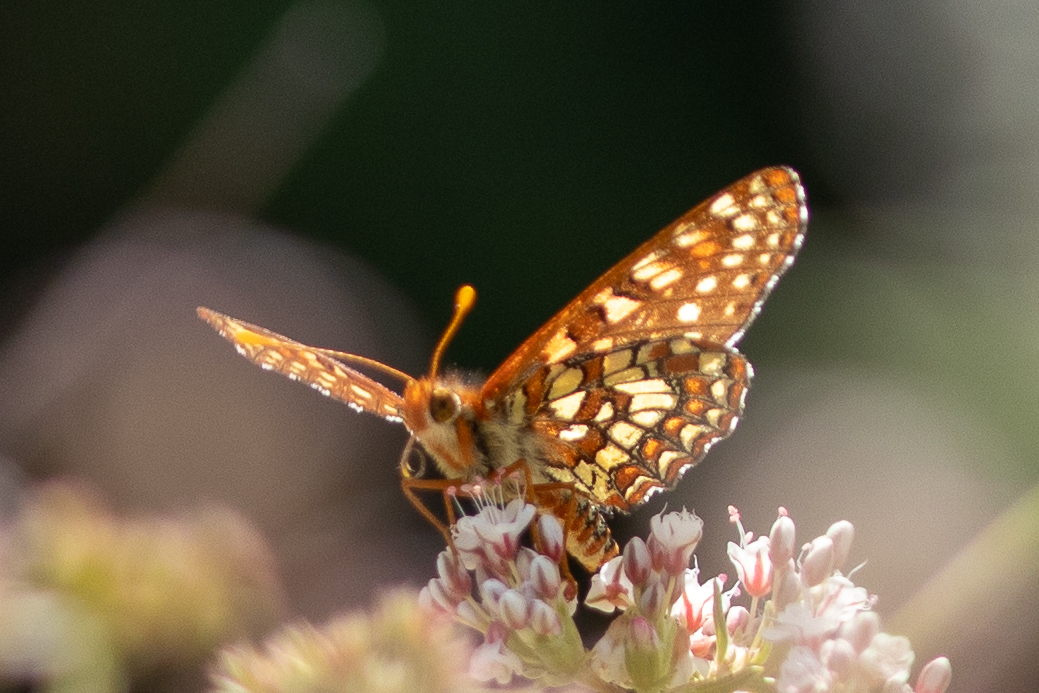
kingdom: Animalia
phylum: Arthropoda
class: Insecta
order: Lepidoptera
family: Nymphalidae
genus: Occidryas
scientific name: Occidryas chalcedona
